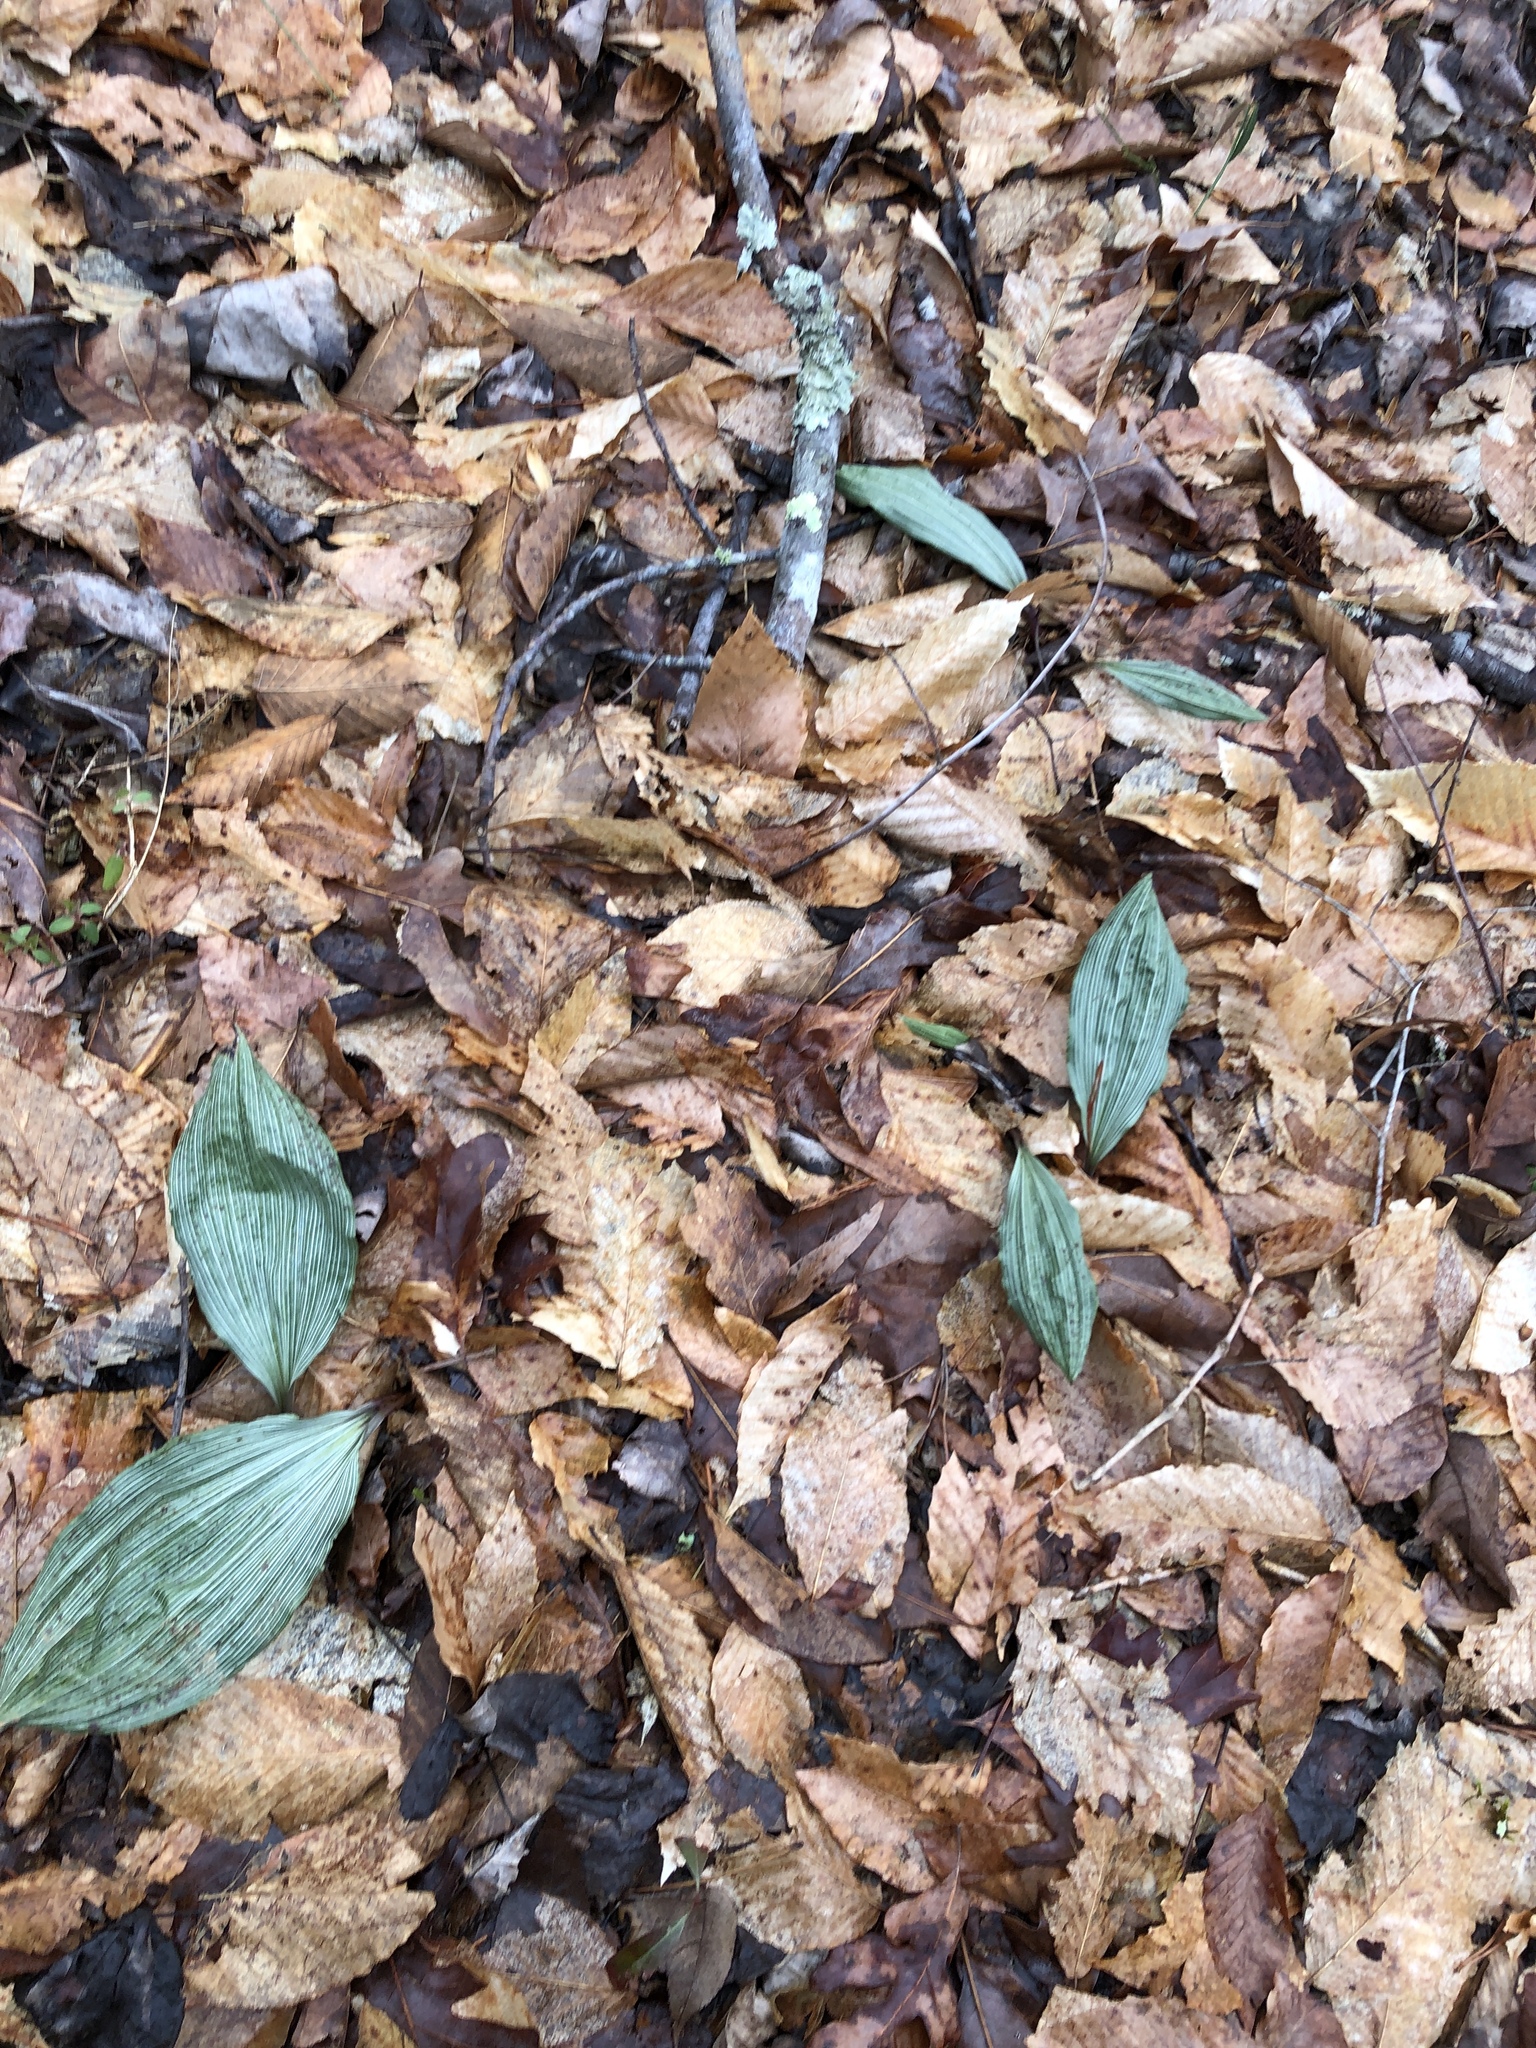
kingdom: Plantae
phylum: Tracheophyta
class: Liliopsida
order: Asparagales
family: Orchidaceae
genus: Aplectrum
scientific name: Aplectrum hyemale
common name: Adam-and-eve
